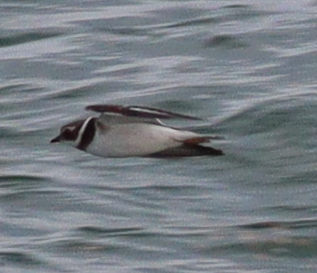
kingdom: Animalia
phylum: Chordata
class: Aves
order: Charadriiformes
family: Charadriidae
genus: Charadrius
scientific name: Charadrius hiaticula
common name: Common ringed plover
